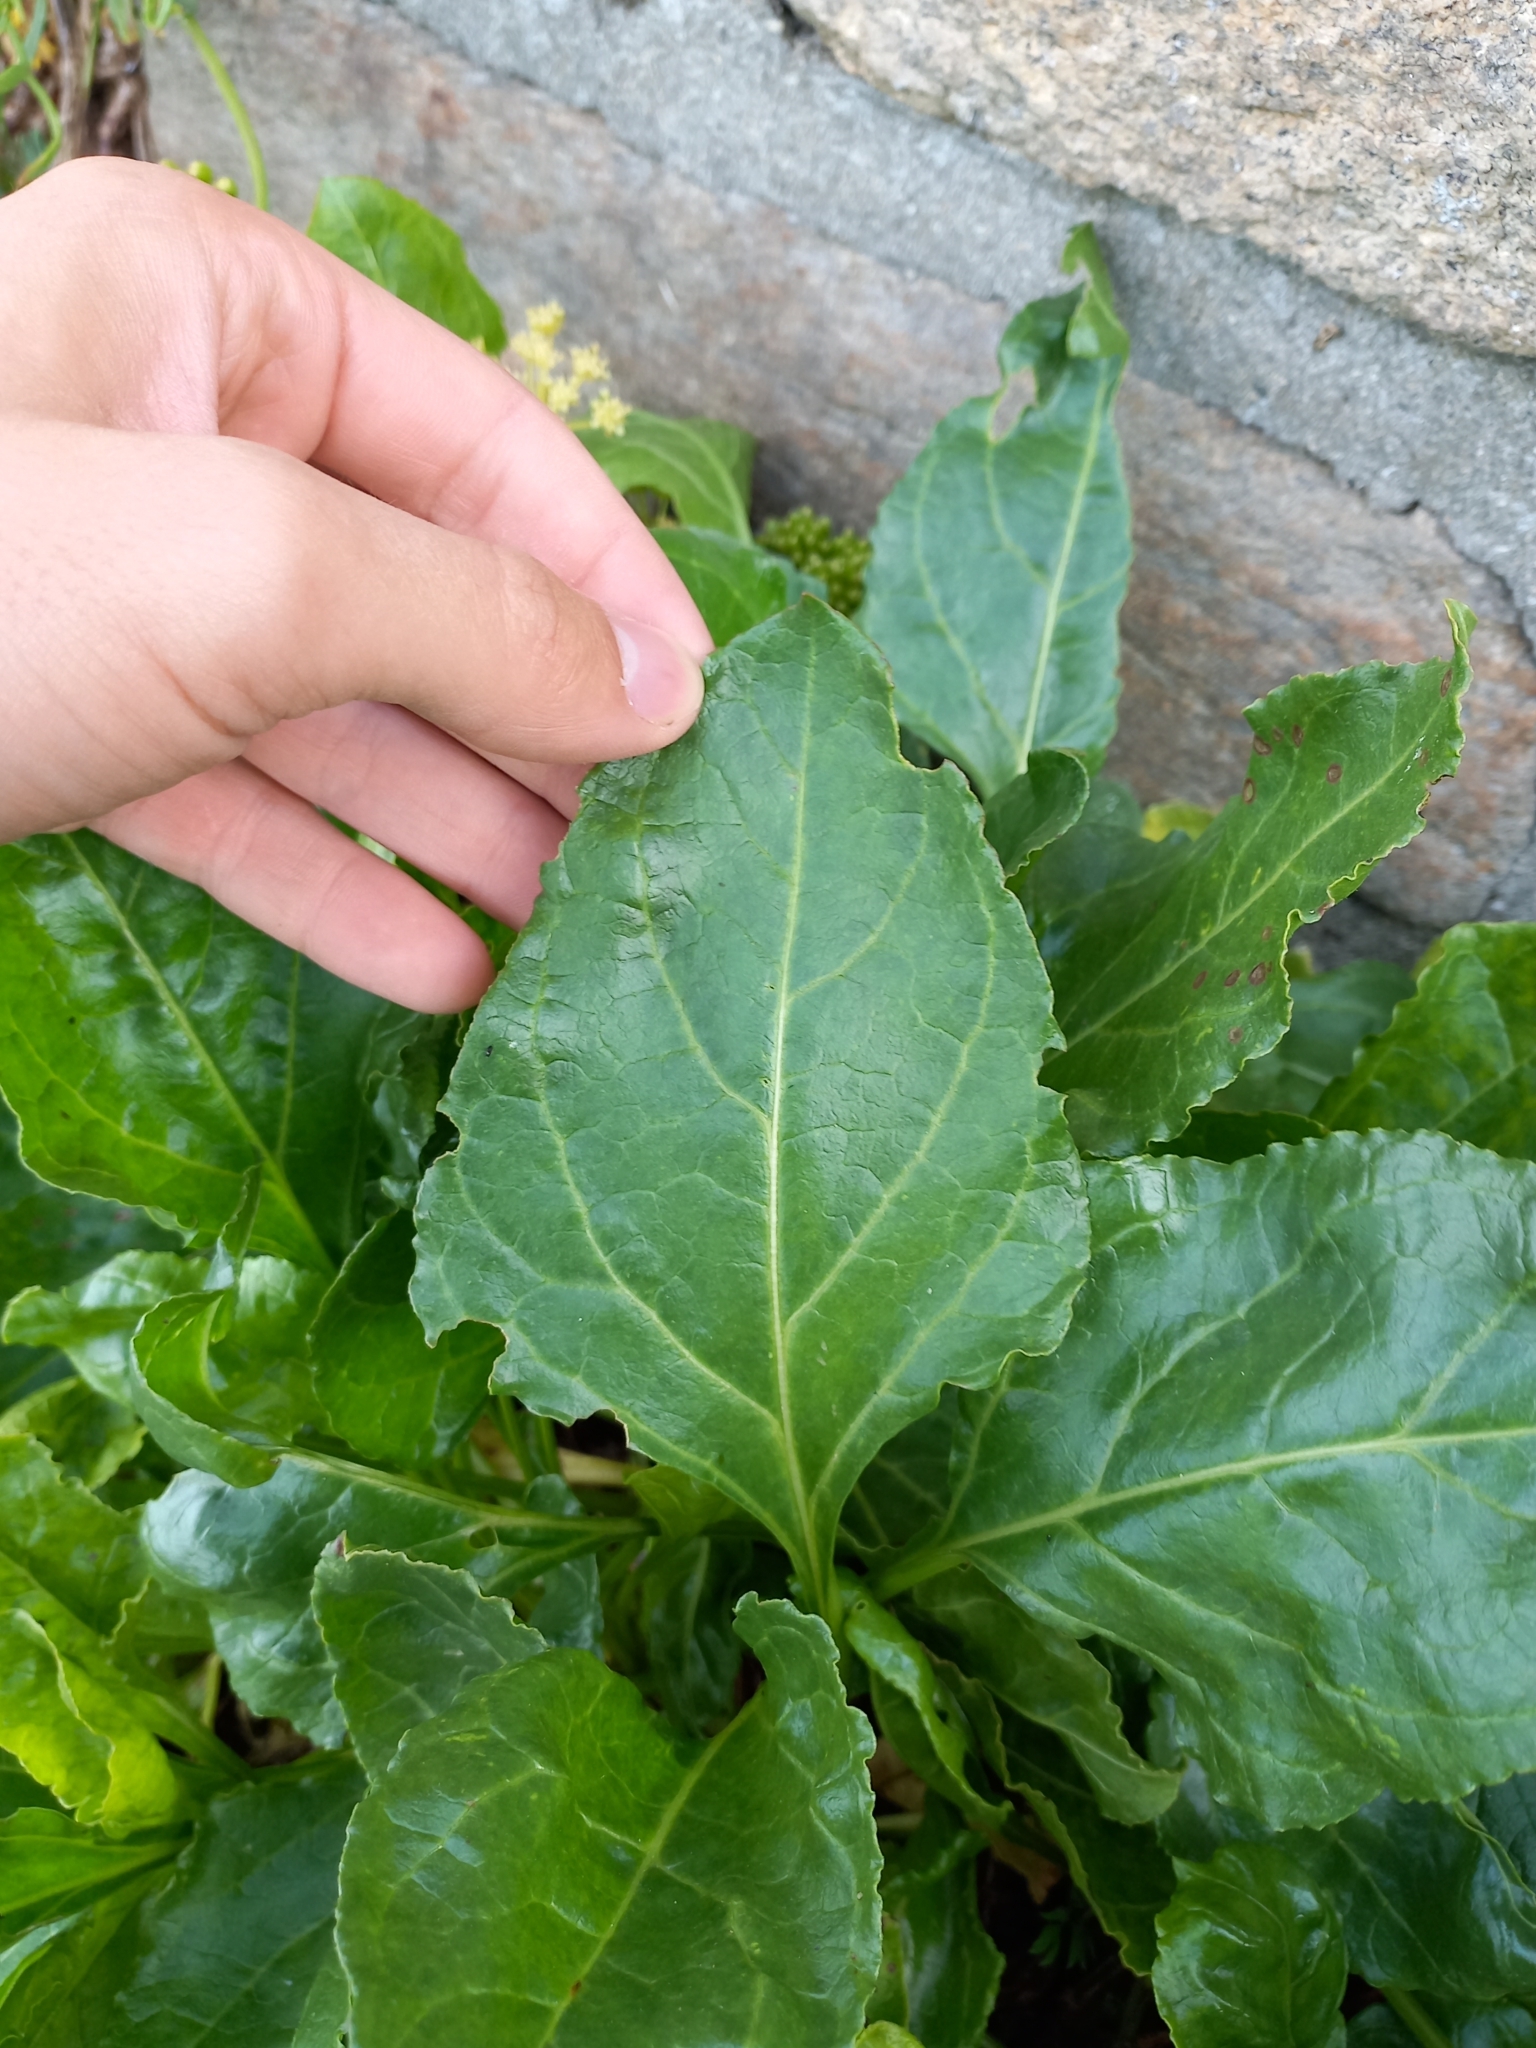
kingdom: Plantae
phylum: Tracheophyta
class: Magnoliopsida
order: Caryophyllales
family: Amaranthaceae
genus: Beta
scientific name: Beta vulgaris
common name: Beet
